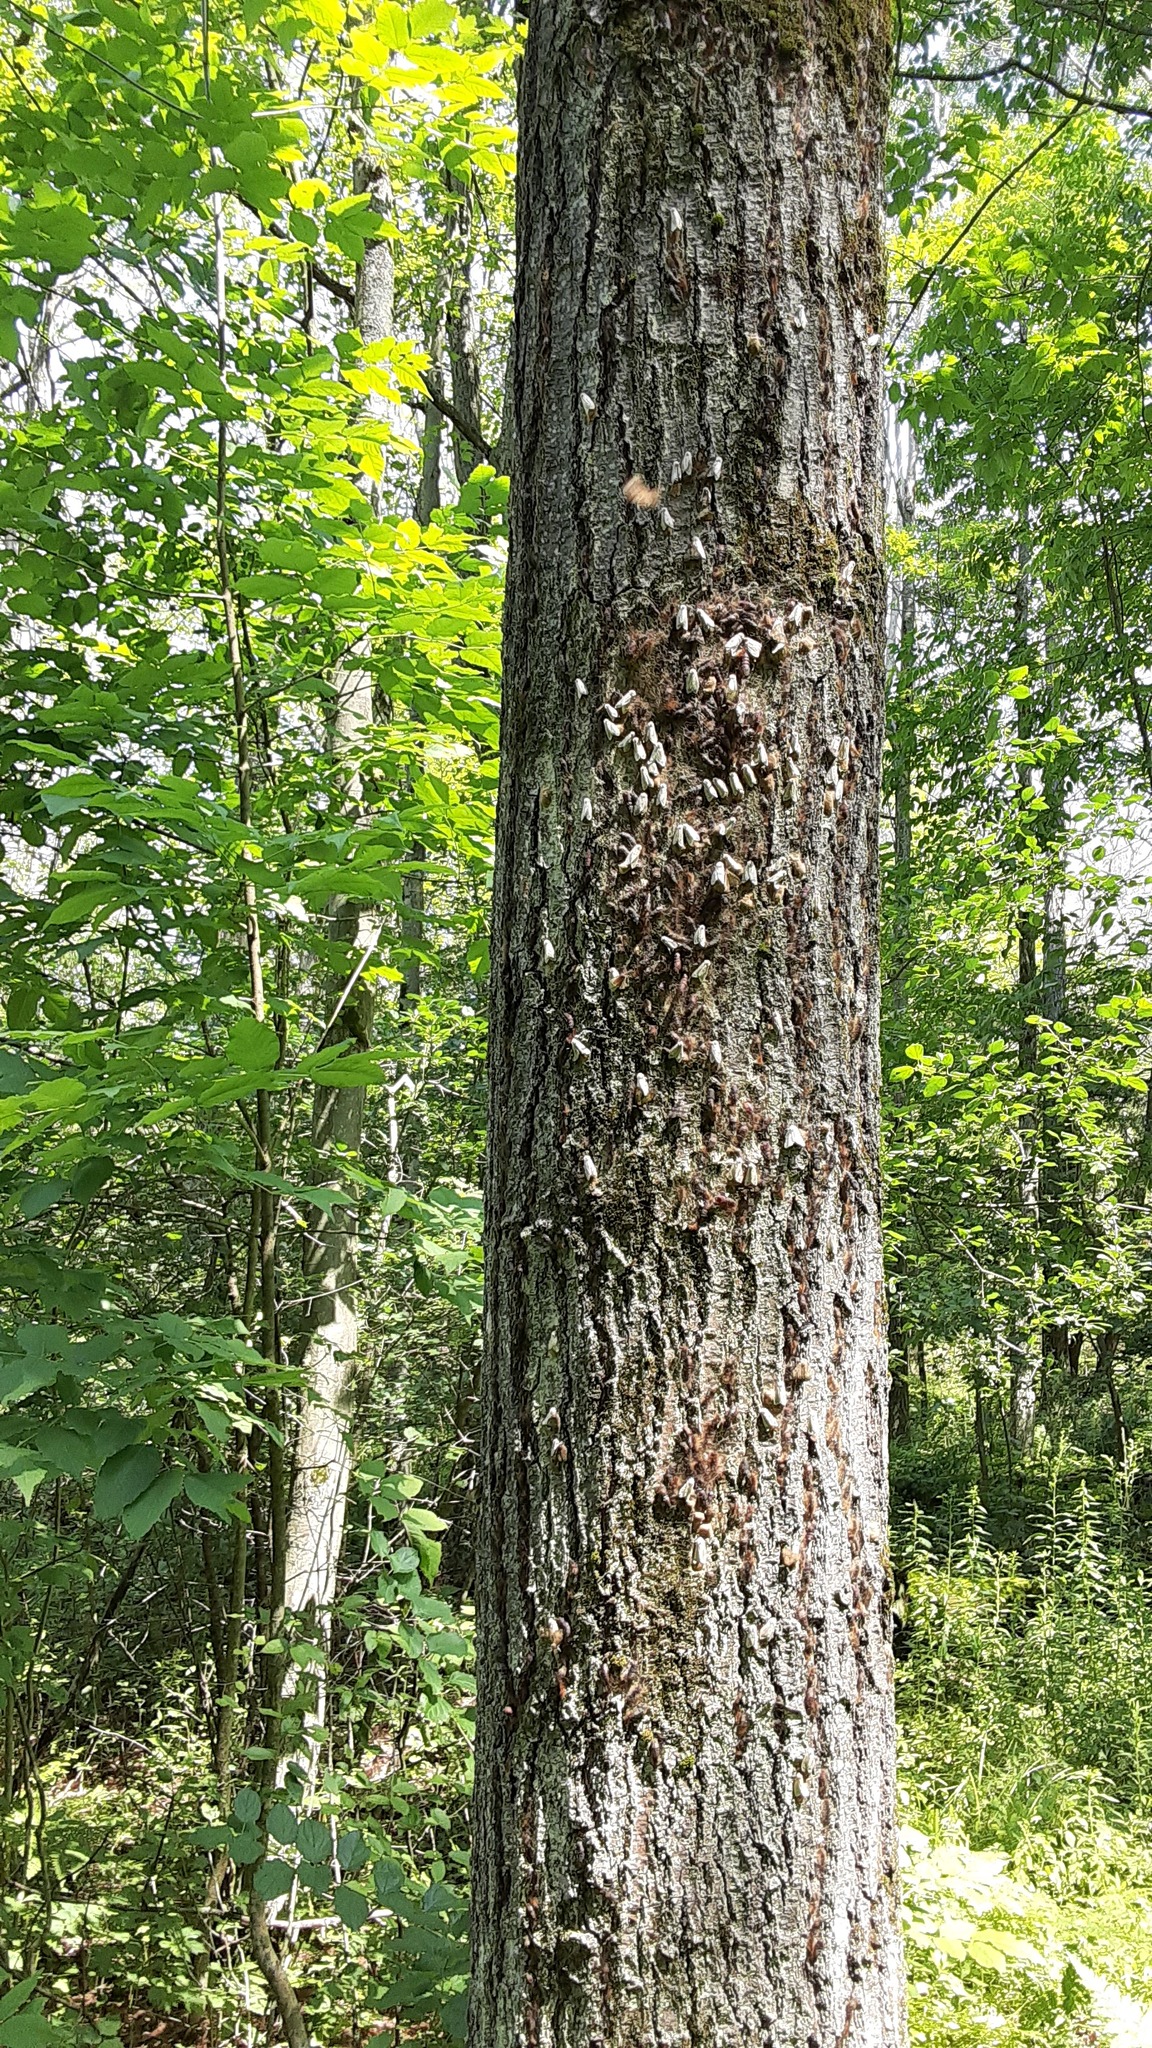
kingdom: Animalia
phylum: Arthropoda
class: Insecta
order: Lepidoptera
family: Erebidae
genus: Lymantria
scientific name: Lymantria dispar
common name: Gypsy moth
